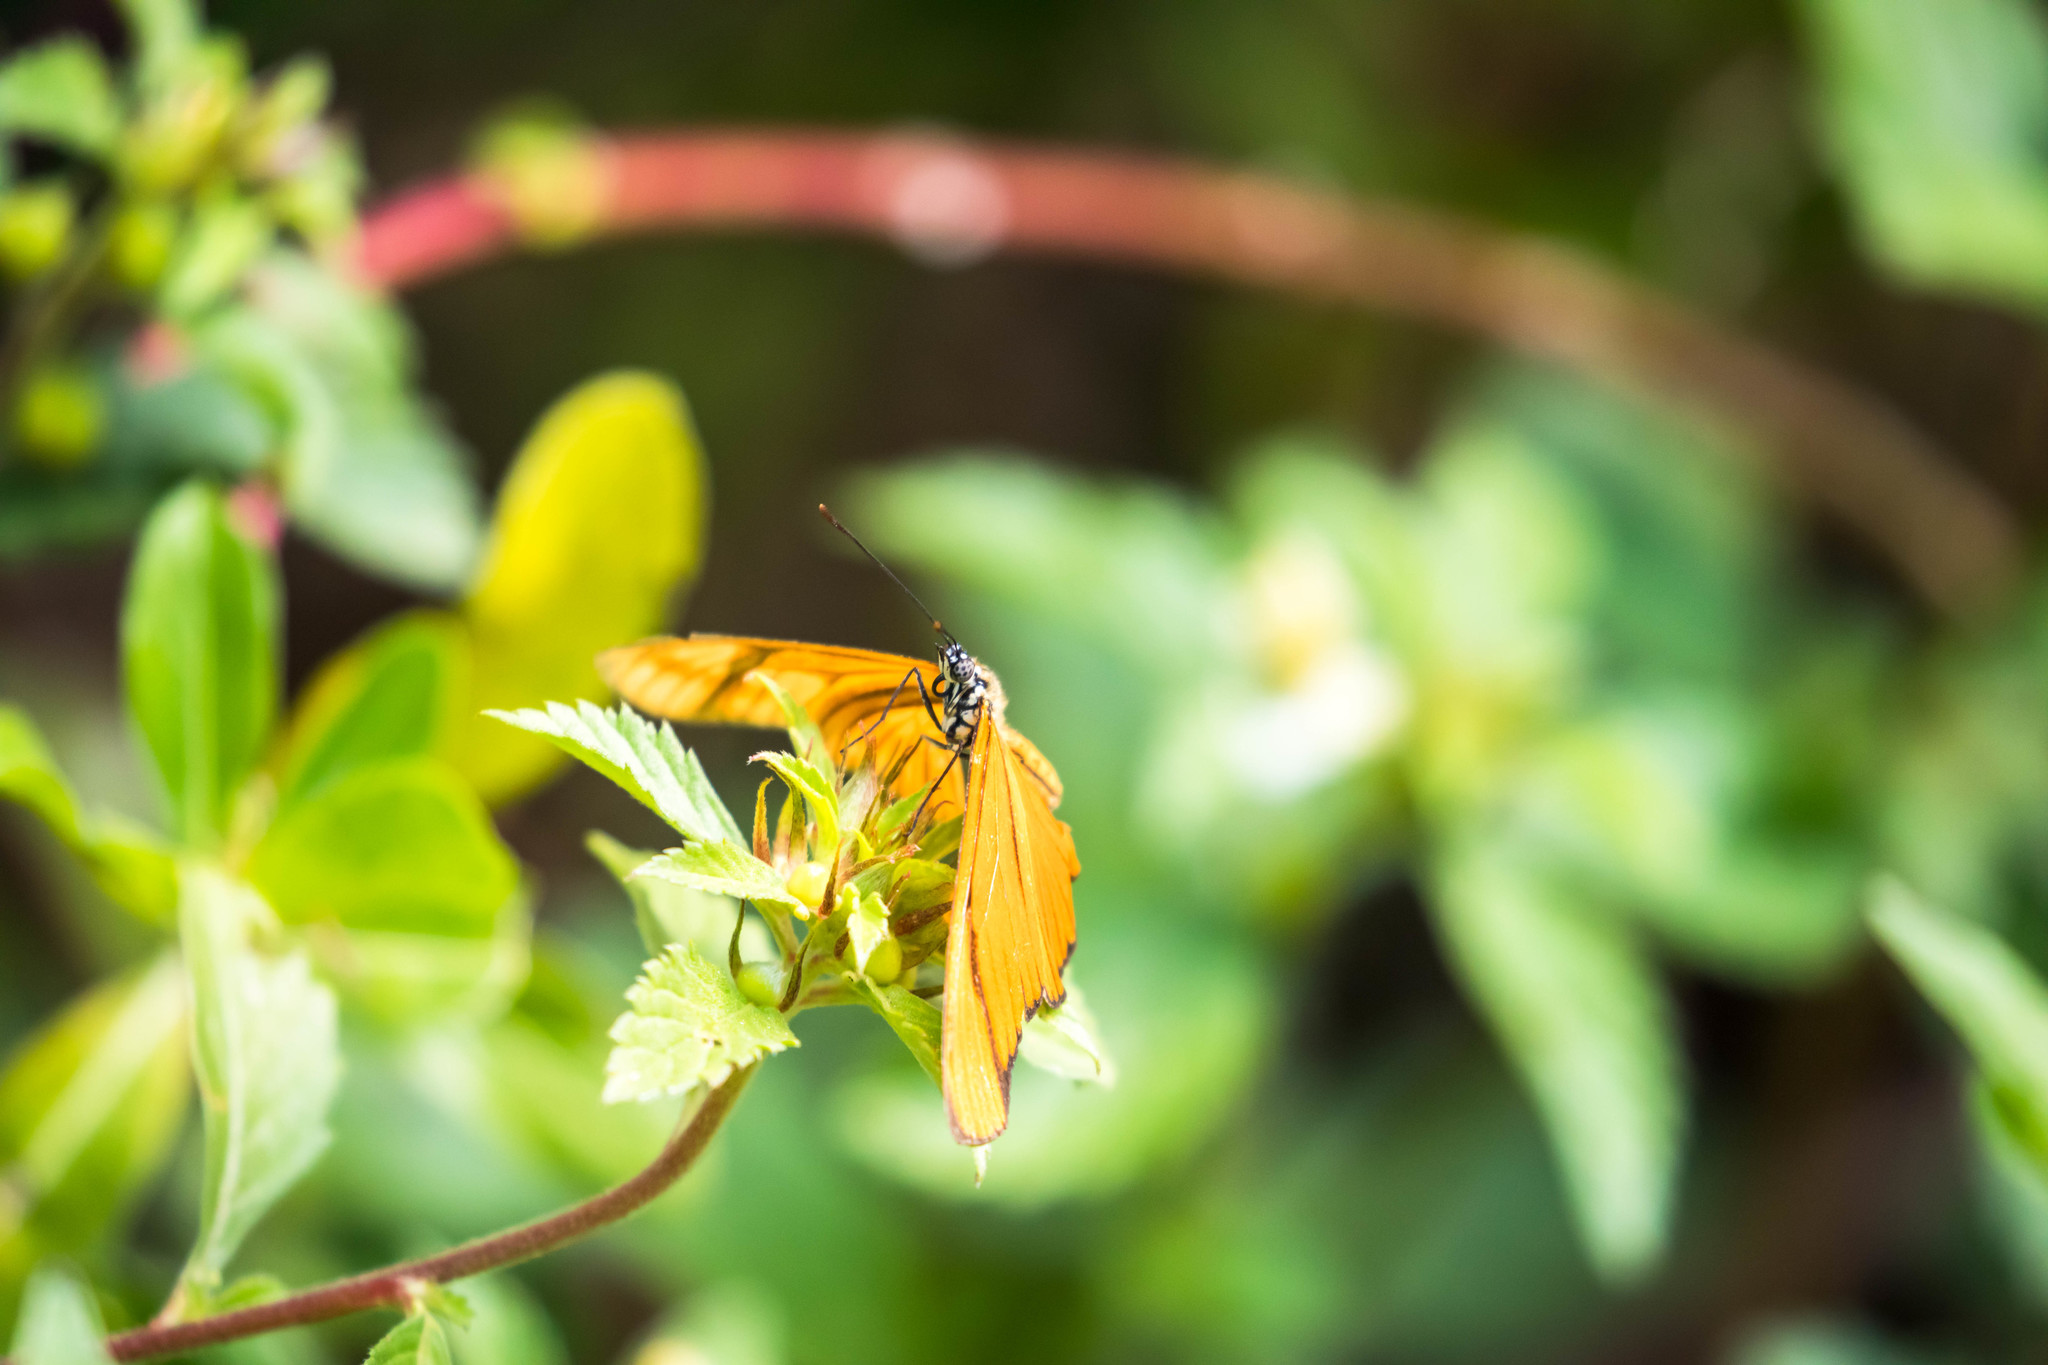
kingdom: Animalia
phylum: Arthropoda
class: Insecta
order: Lepidoptera
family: Nymphalidae
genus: Heliconius
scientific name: Heliconius aliphera
